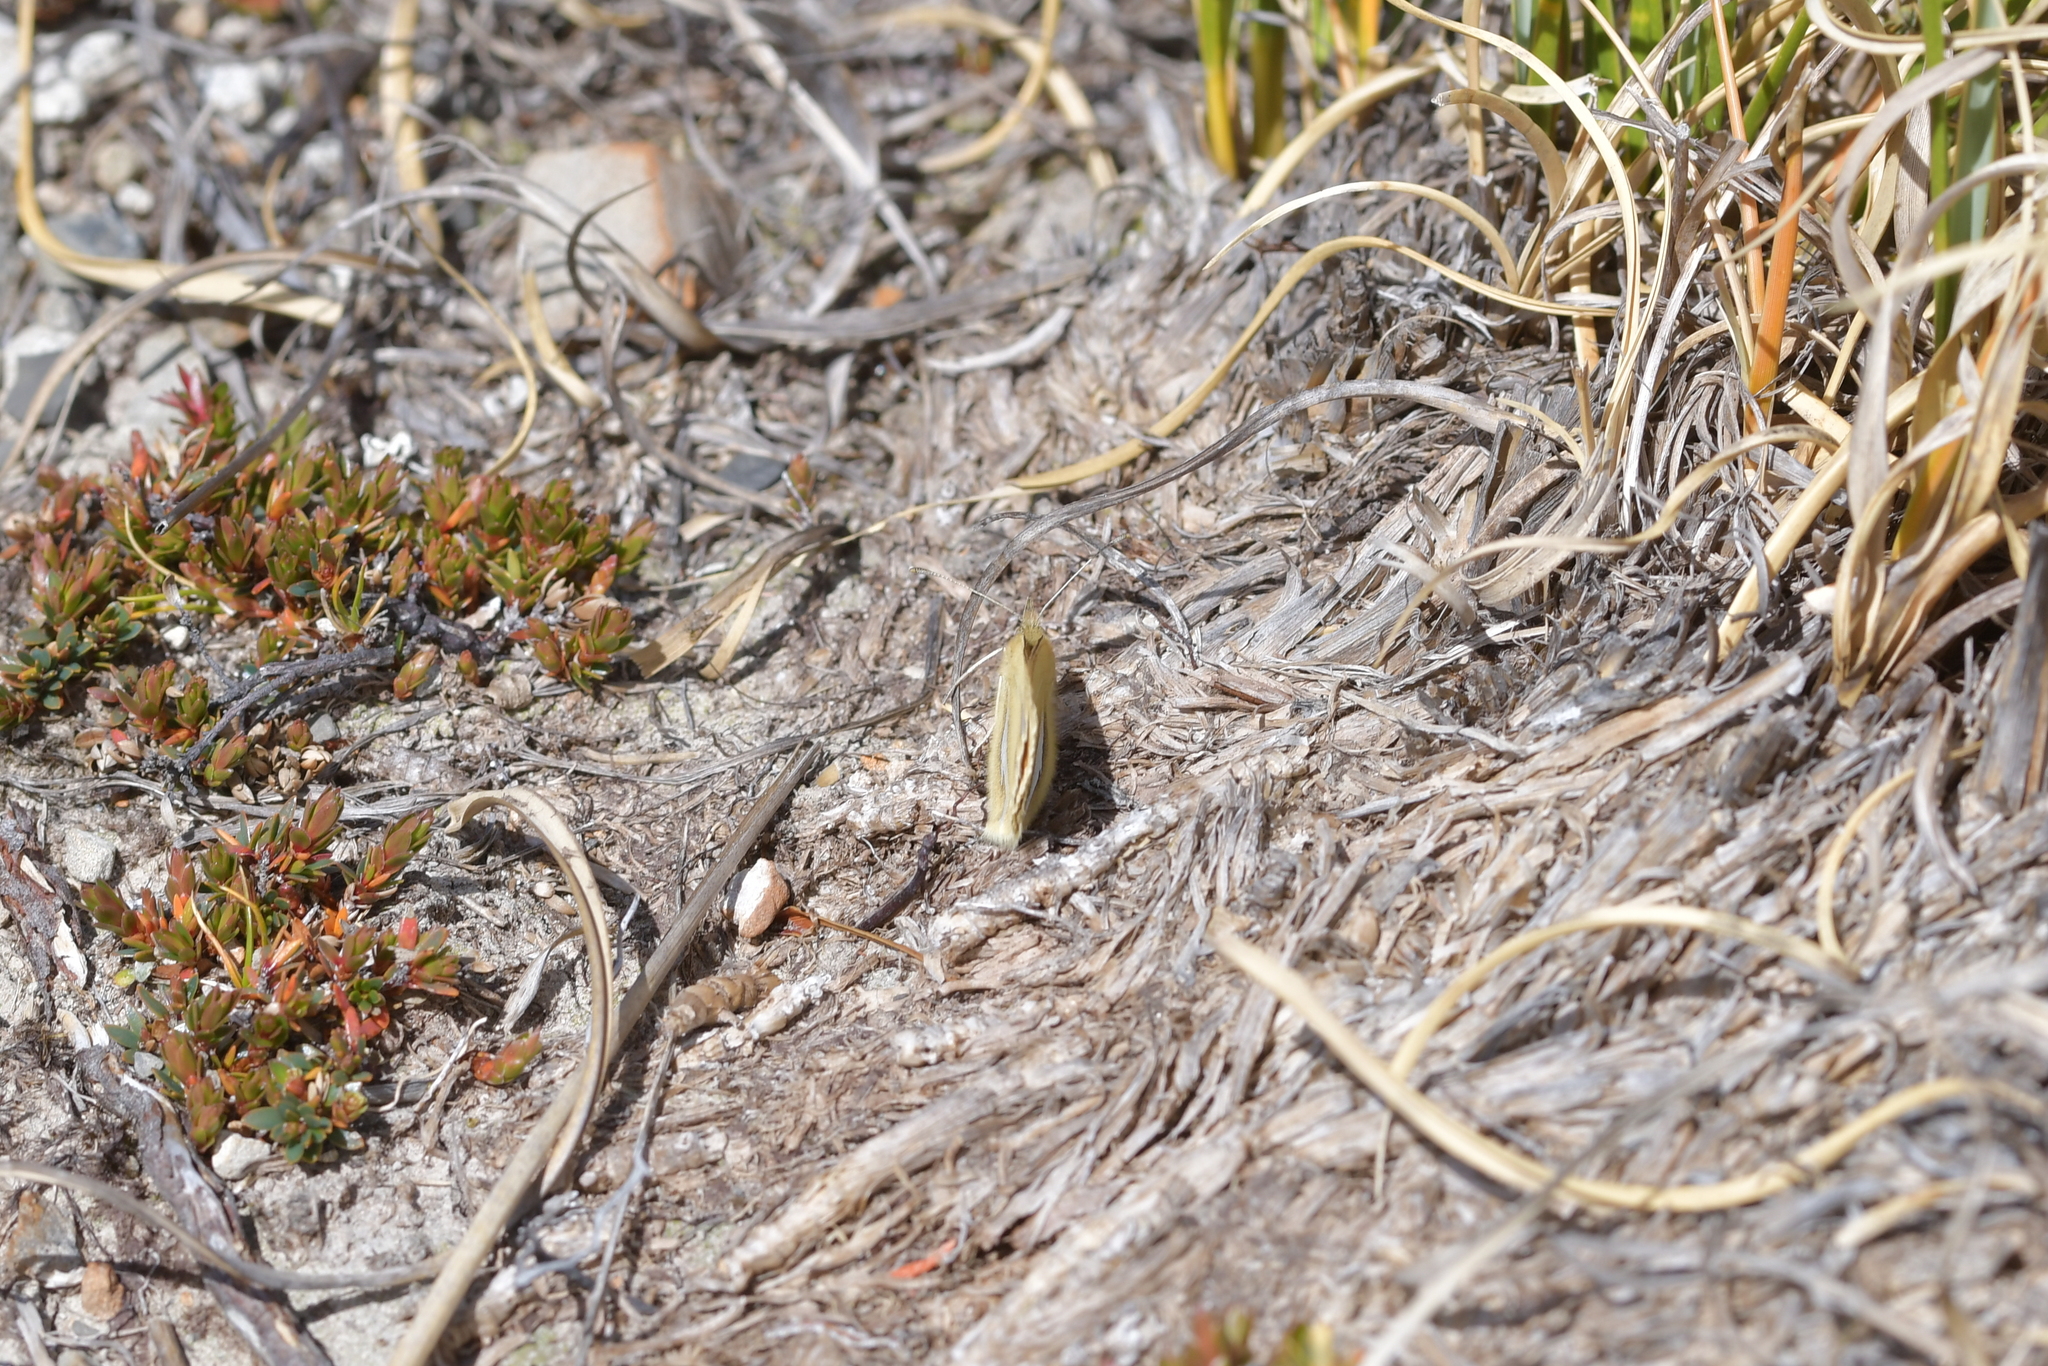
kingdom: Animalia
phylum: Arthropoda
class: Insecta
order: Lepidoptera
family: Nymphalidae
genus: Argyrophenga
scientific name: Argyrophenga janitae
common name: Janita's tussock
